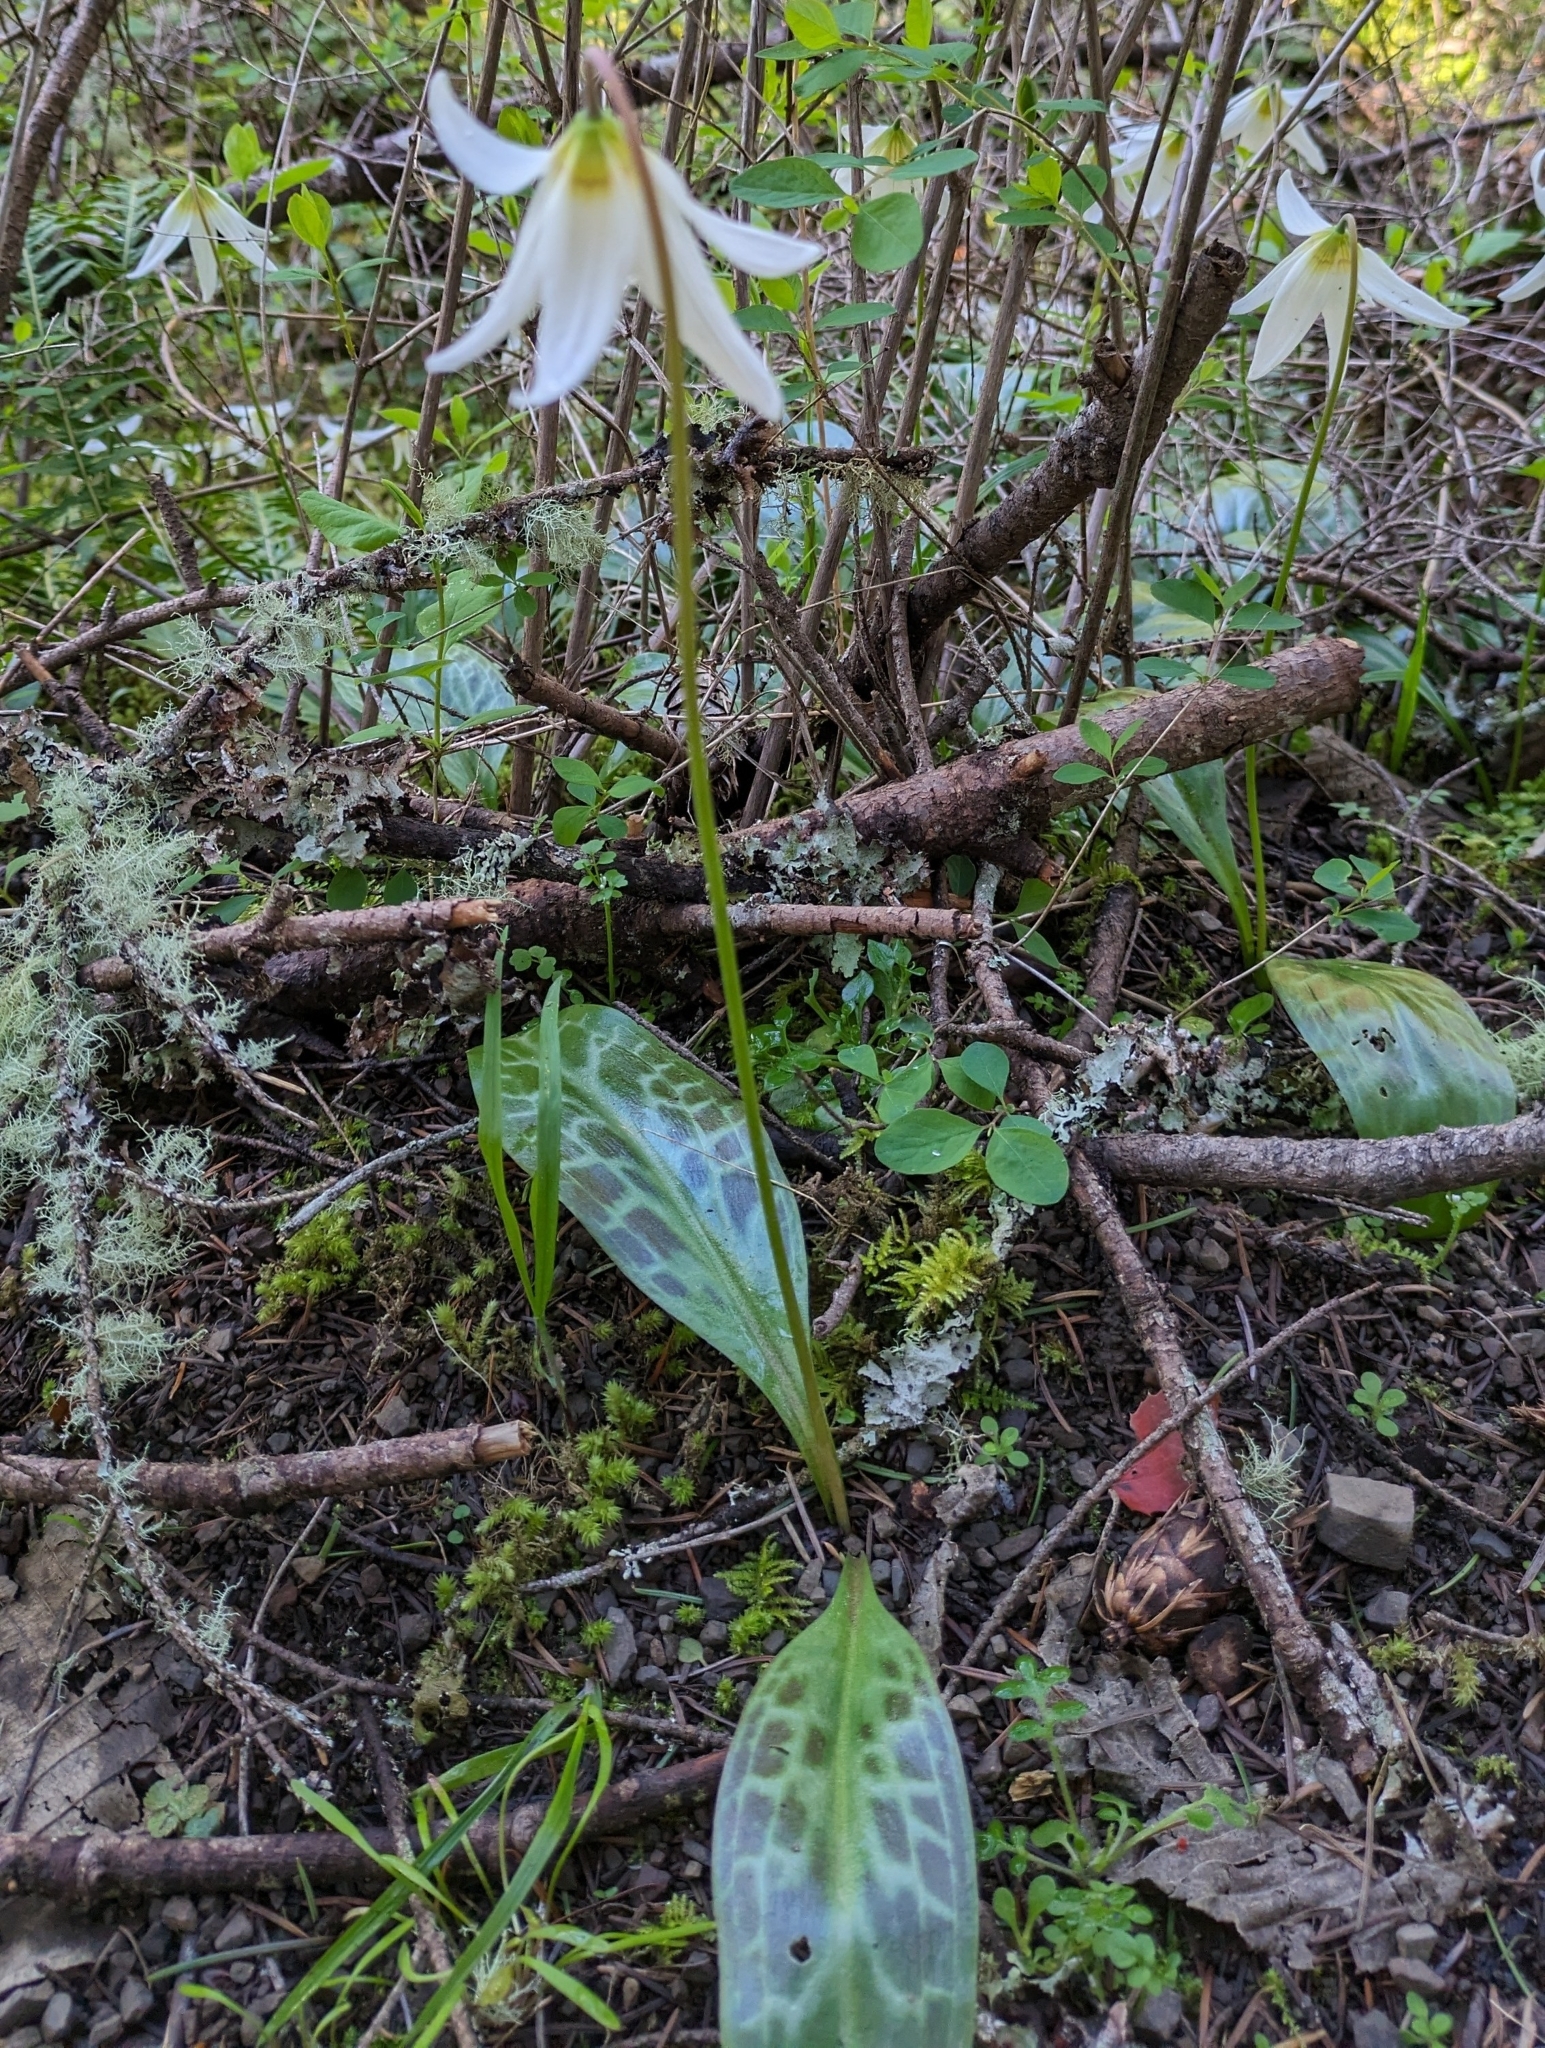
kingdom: Plantae
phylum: Tracheophyta
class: Liliopsida
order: Liliales
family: Liliaceae
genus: Erythronium
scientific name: Erythronium oregonum
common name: Giant adder's-tongue
